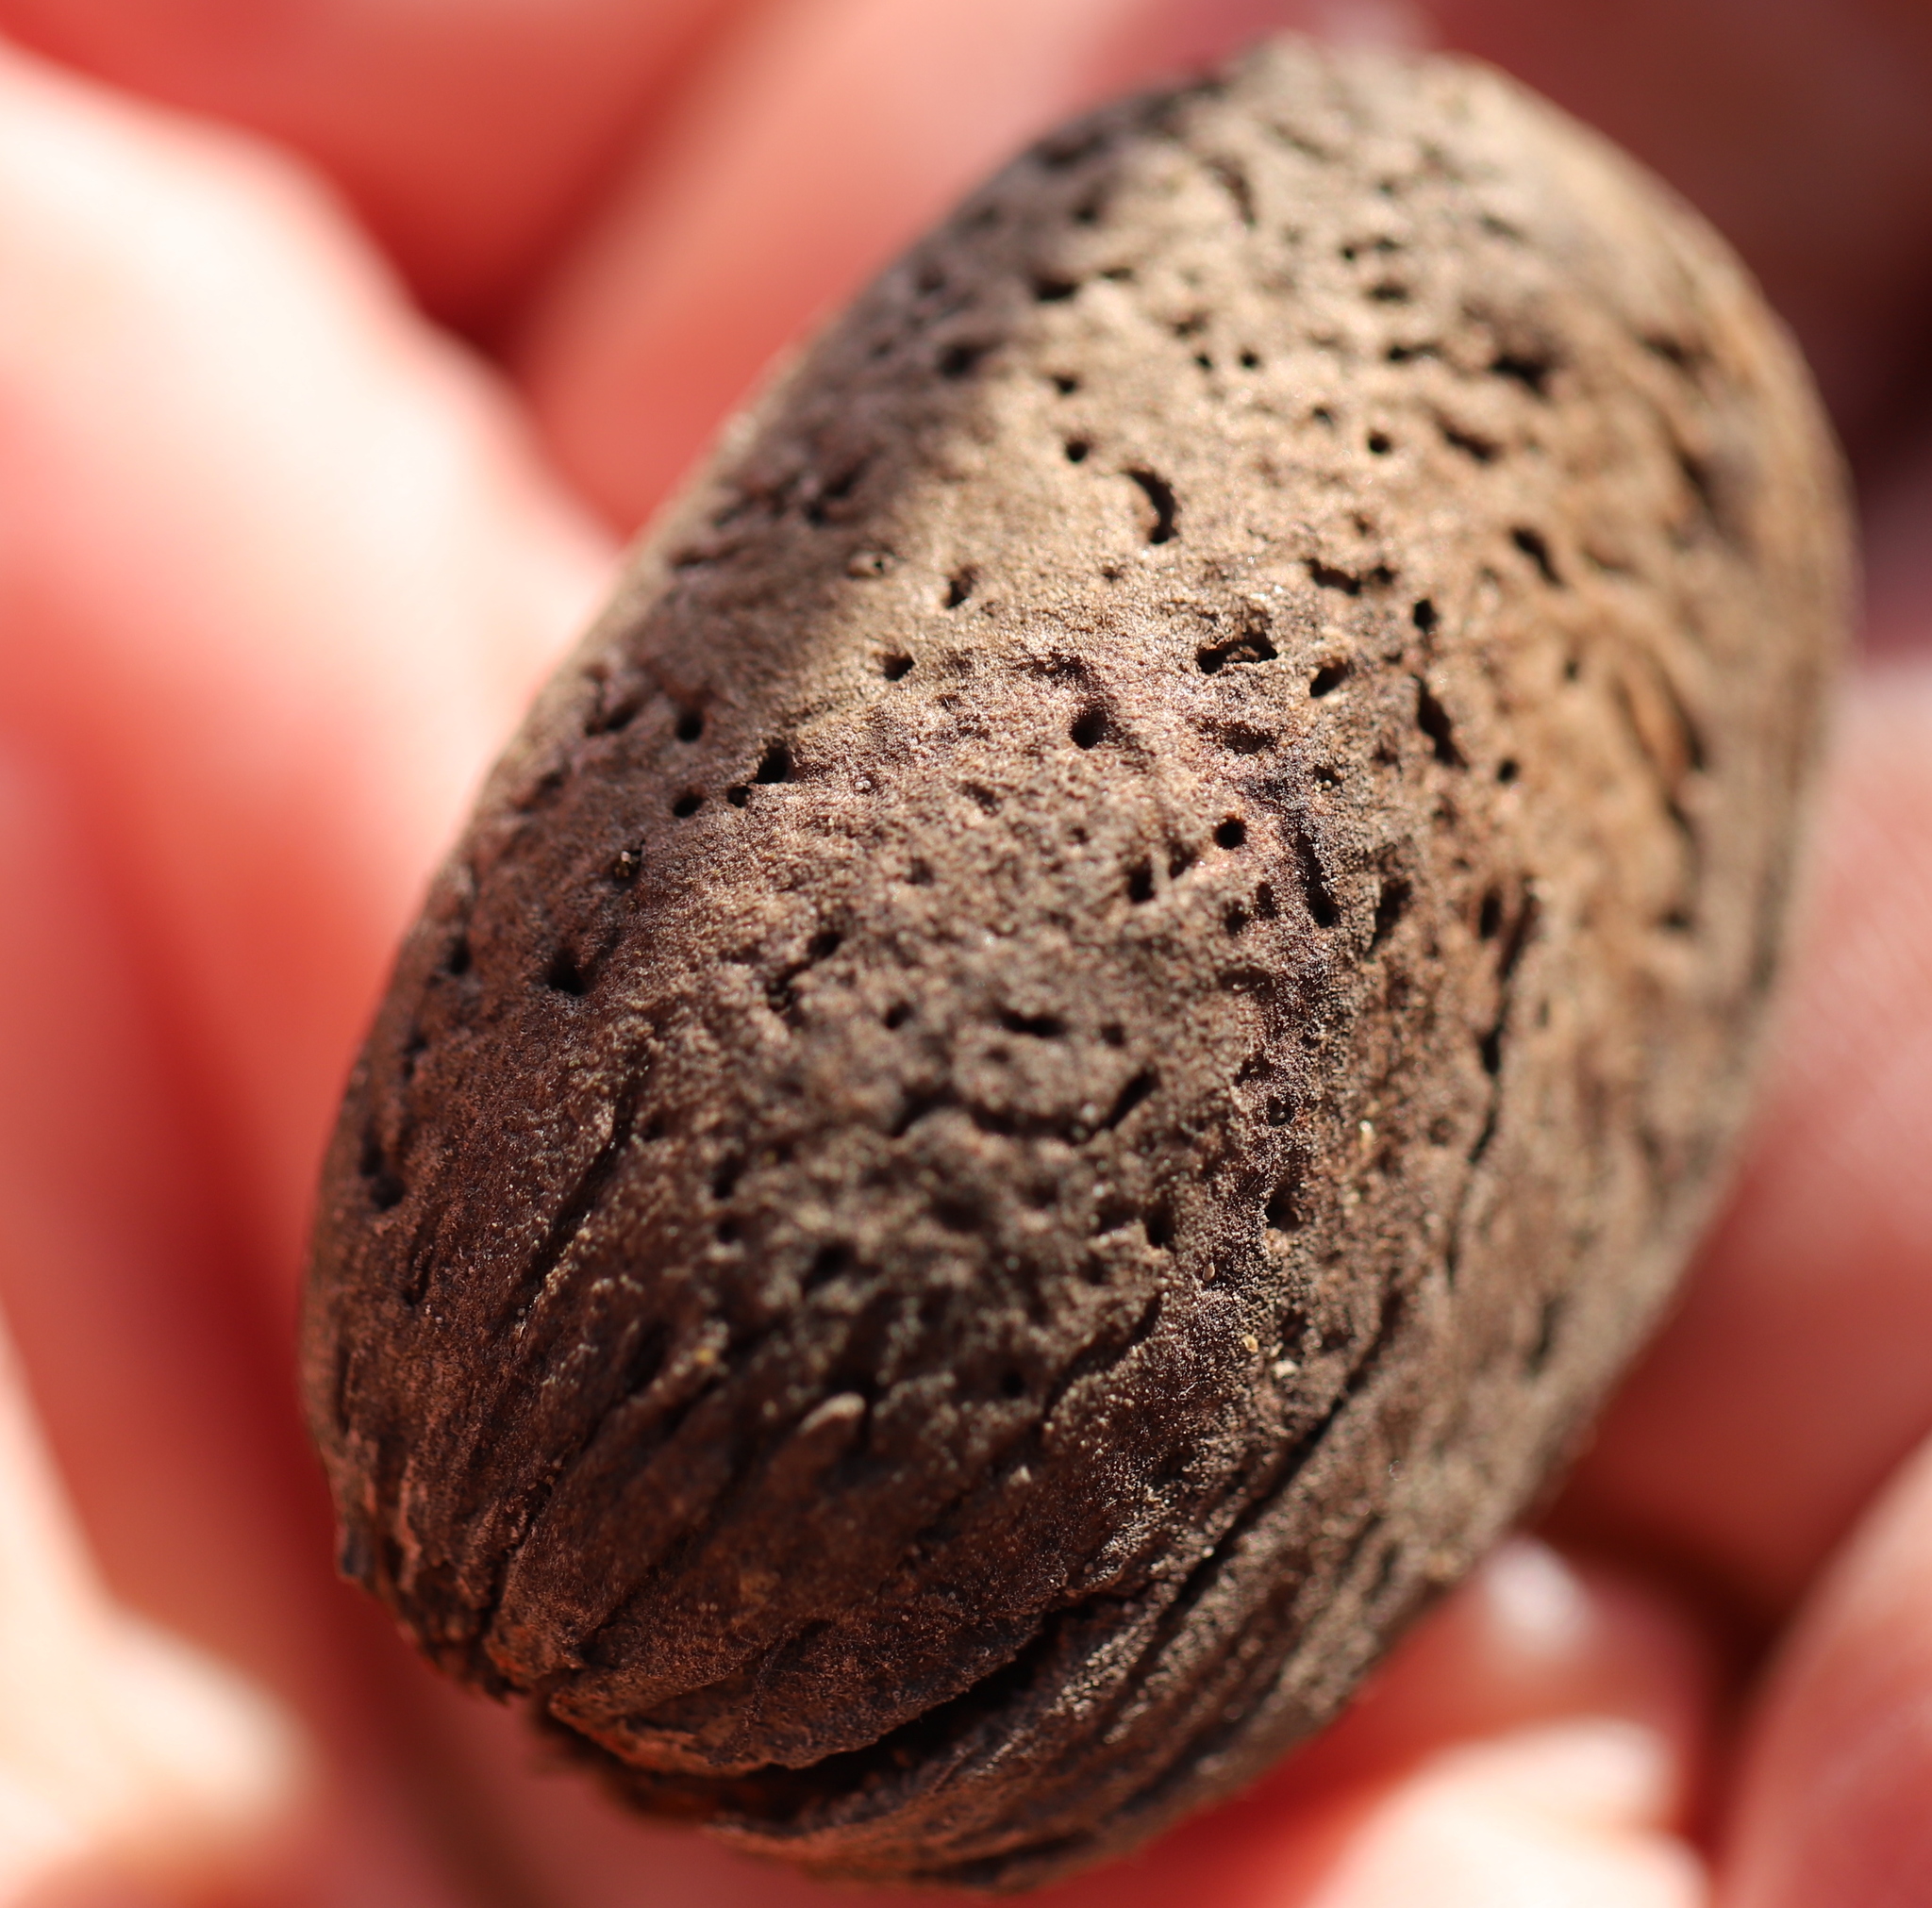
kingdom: Plantae
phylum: Tracheophyta
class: Magnoliopsida
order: Rosales
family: Rosaceae
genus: Prunus
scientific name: Prunus amygdalus
